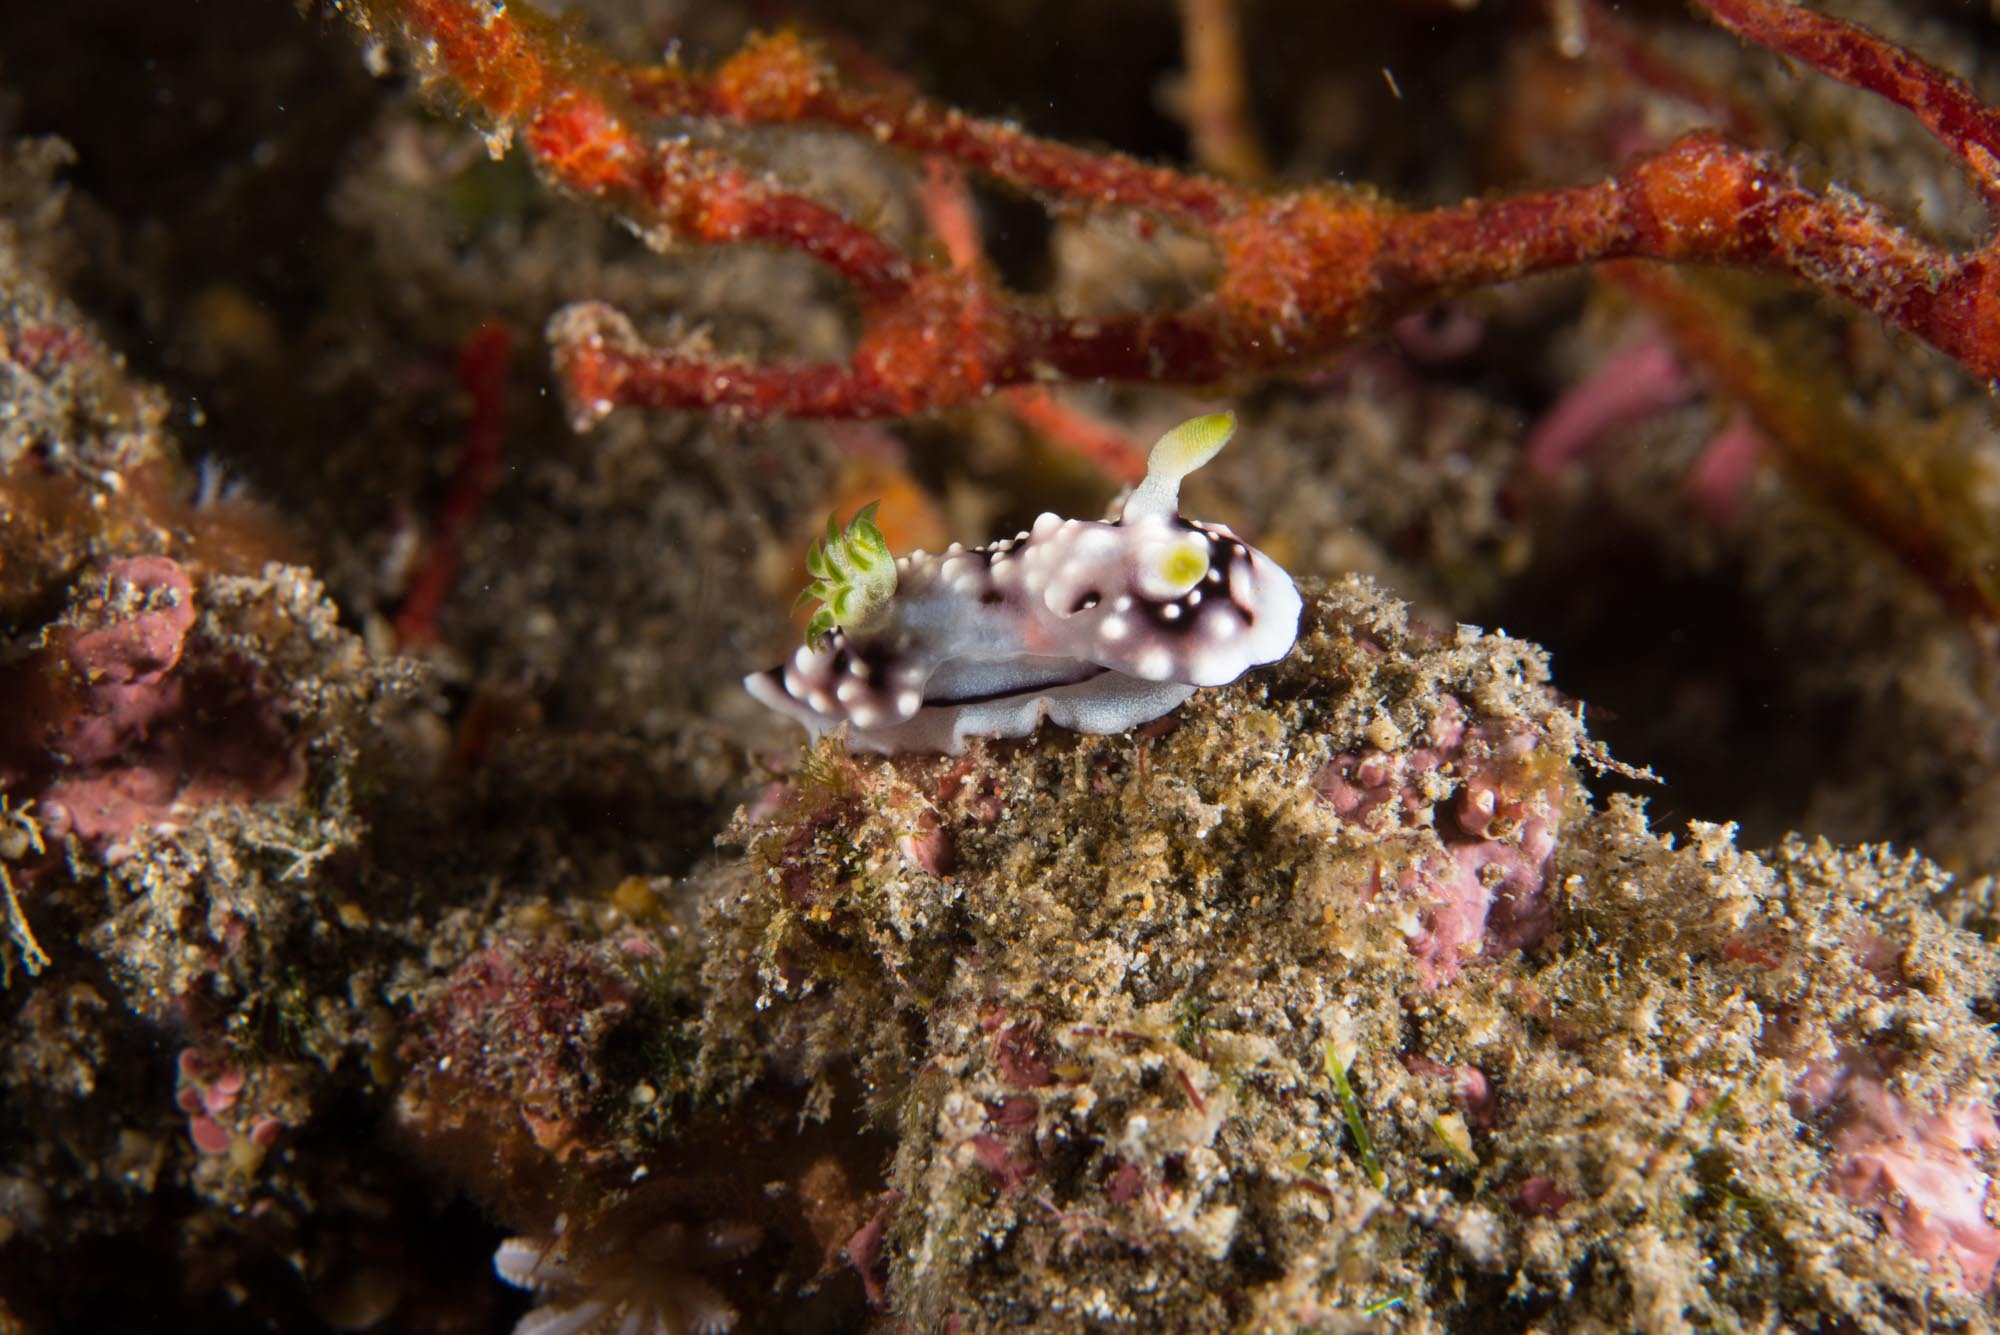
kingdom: Animalia
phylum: Mollusca
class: Gastropoda
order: Nudibranchia
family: Chromodorididae
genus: Goniobranchus
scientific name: Goniobranchus geometricus
